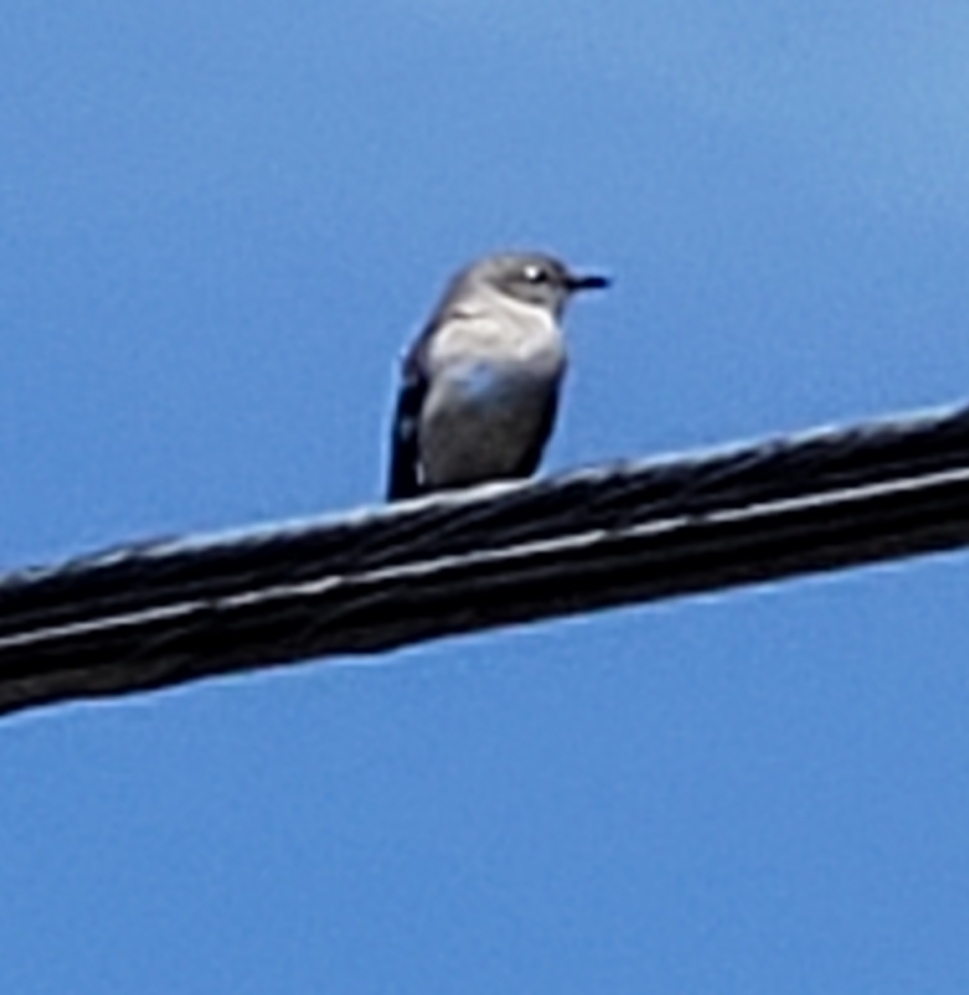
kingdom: Animalia
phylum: Chordata
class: Aves
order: Passeriformes
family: Mimidae
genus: Mimus
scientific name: Mimus polyglottos
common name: Northern mockingbird
